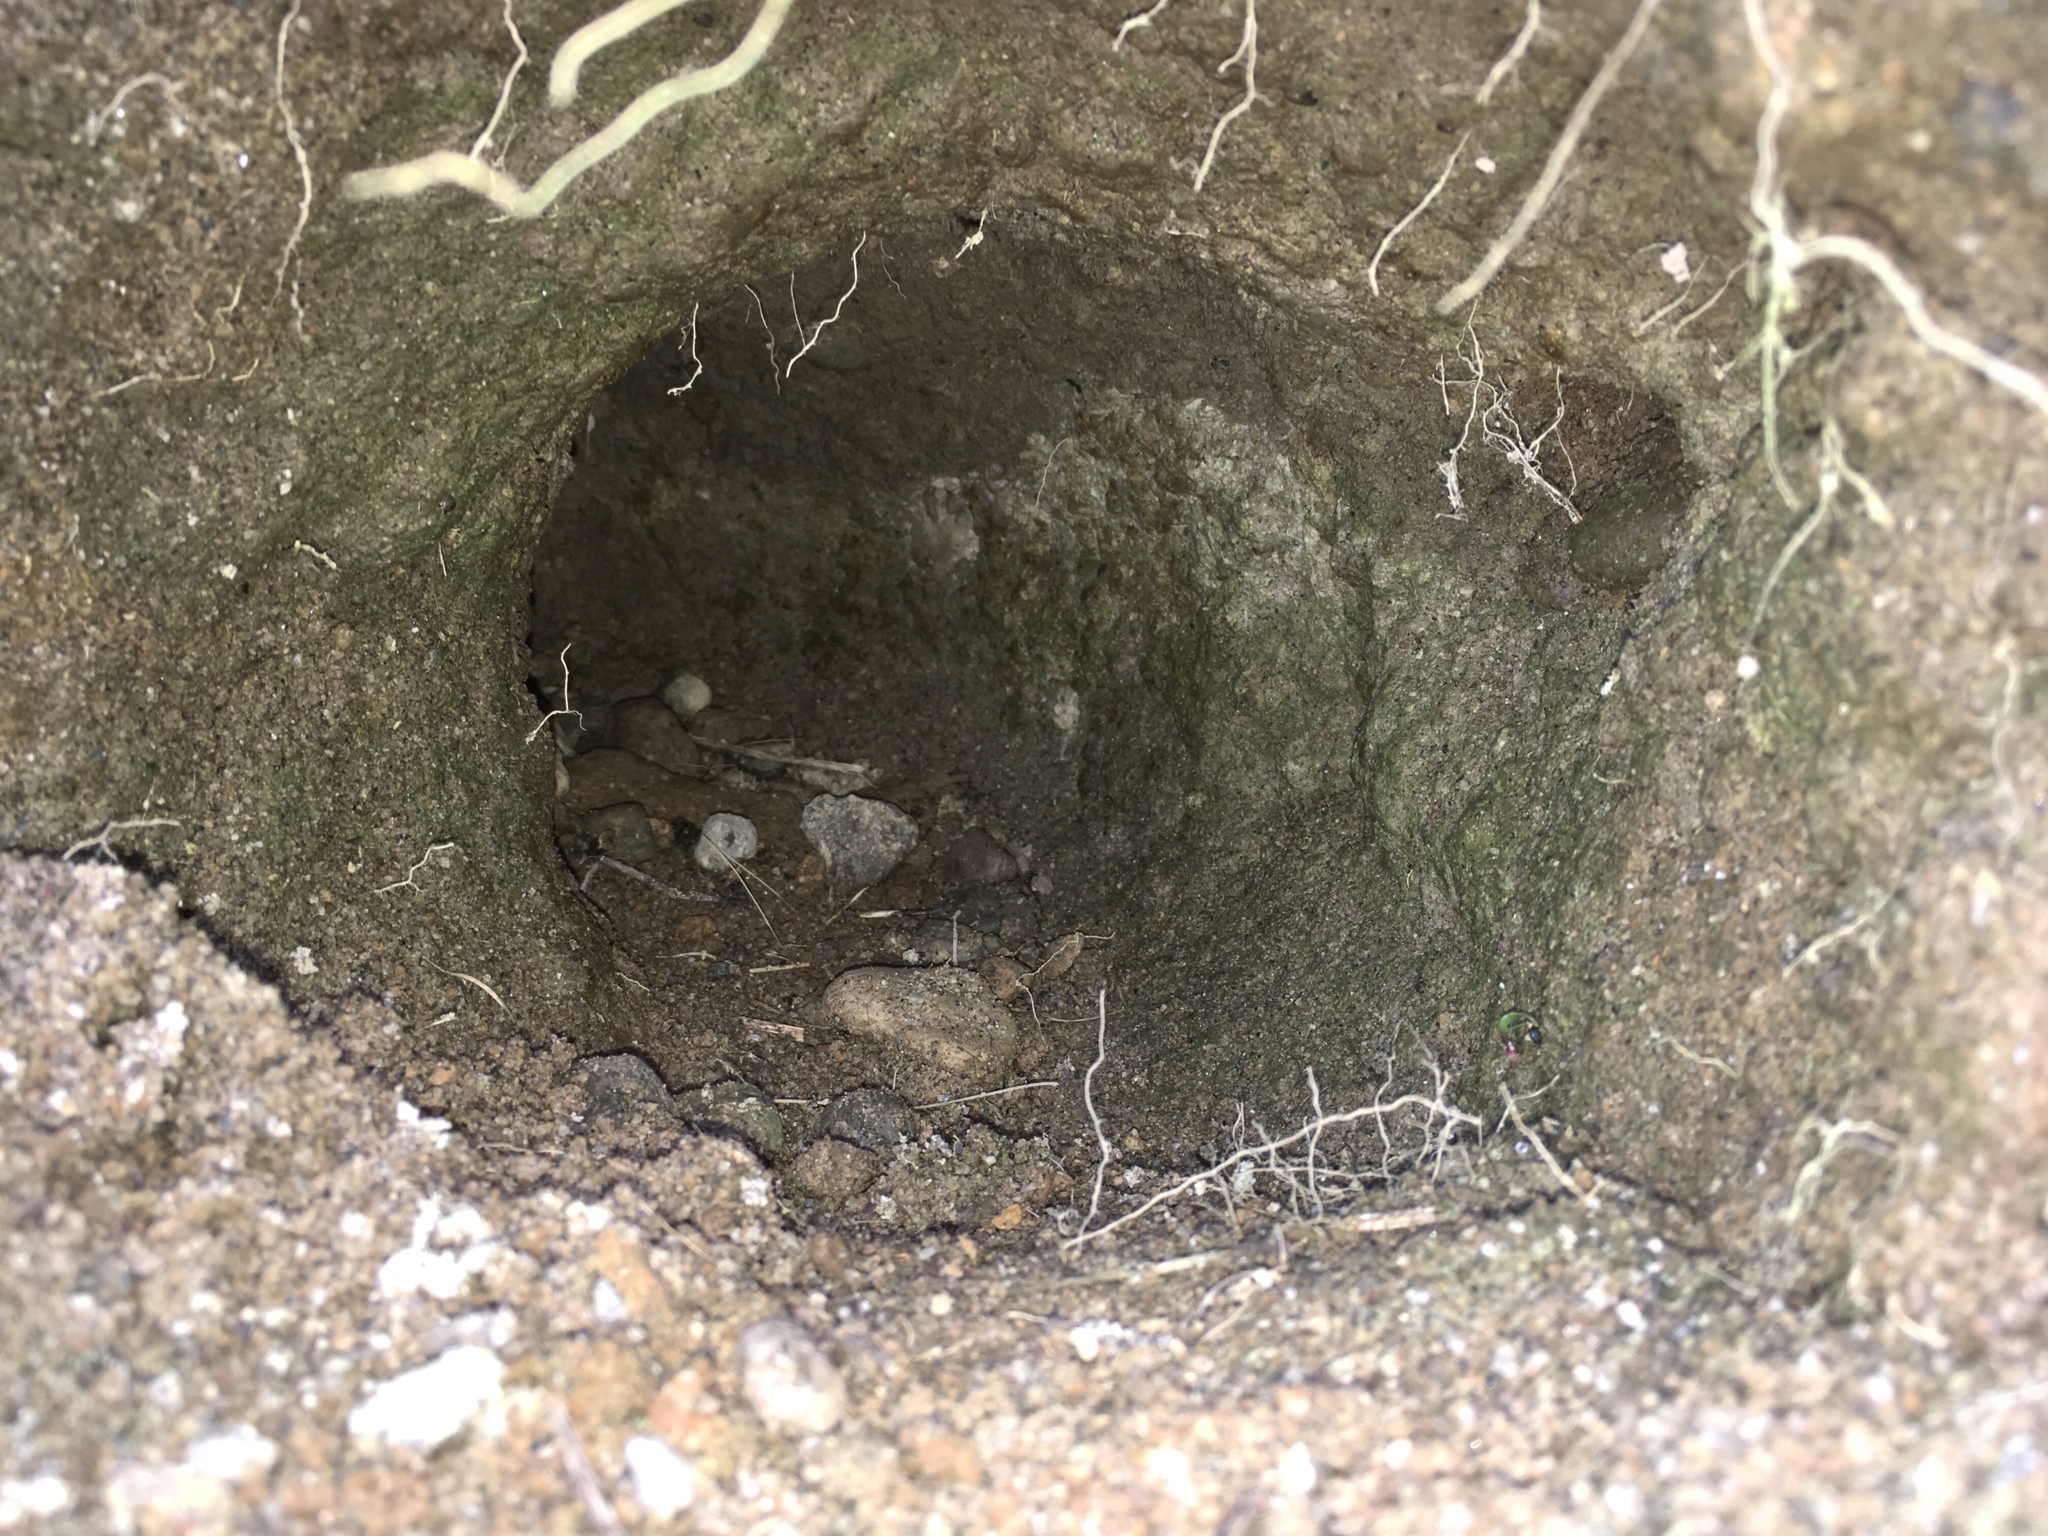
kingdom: Animalia
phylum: Chordata
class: Mammalia
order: Lagomorpha
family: Leporidae
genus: Oryctolagus
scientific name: Oryctolagus cuniculus
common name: European rabbit
